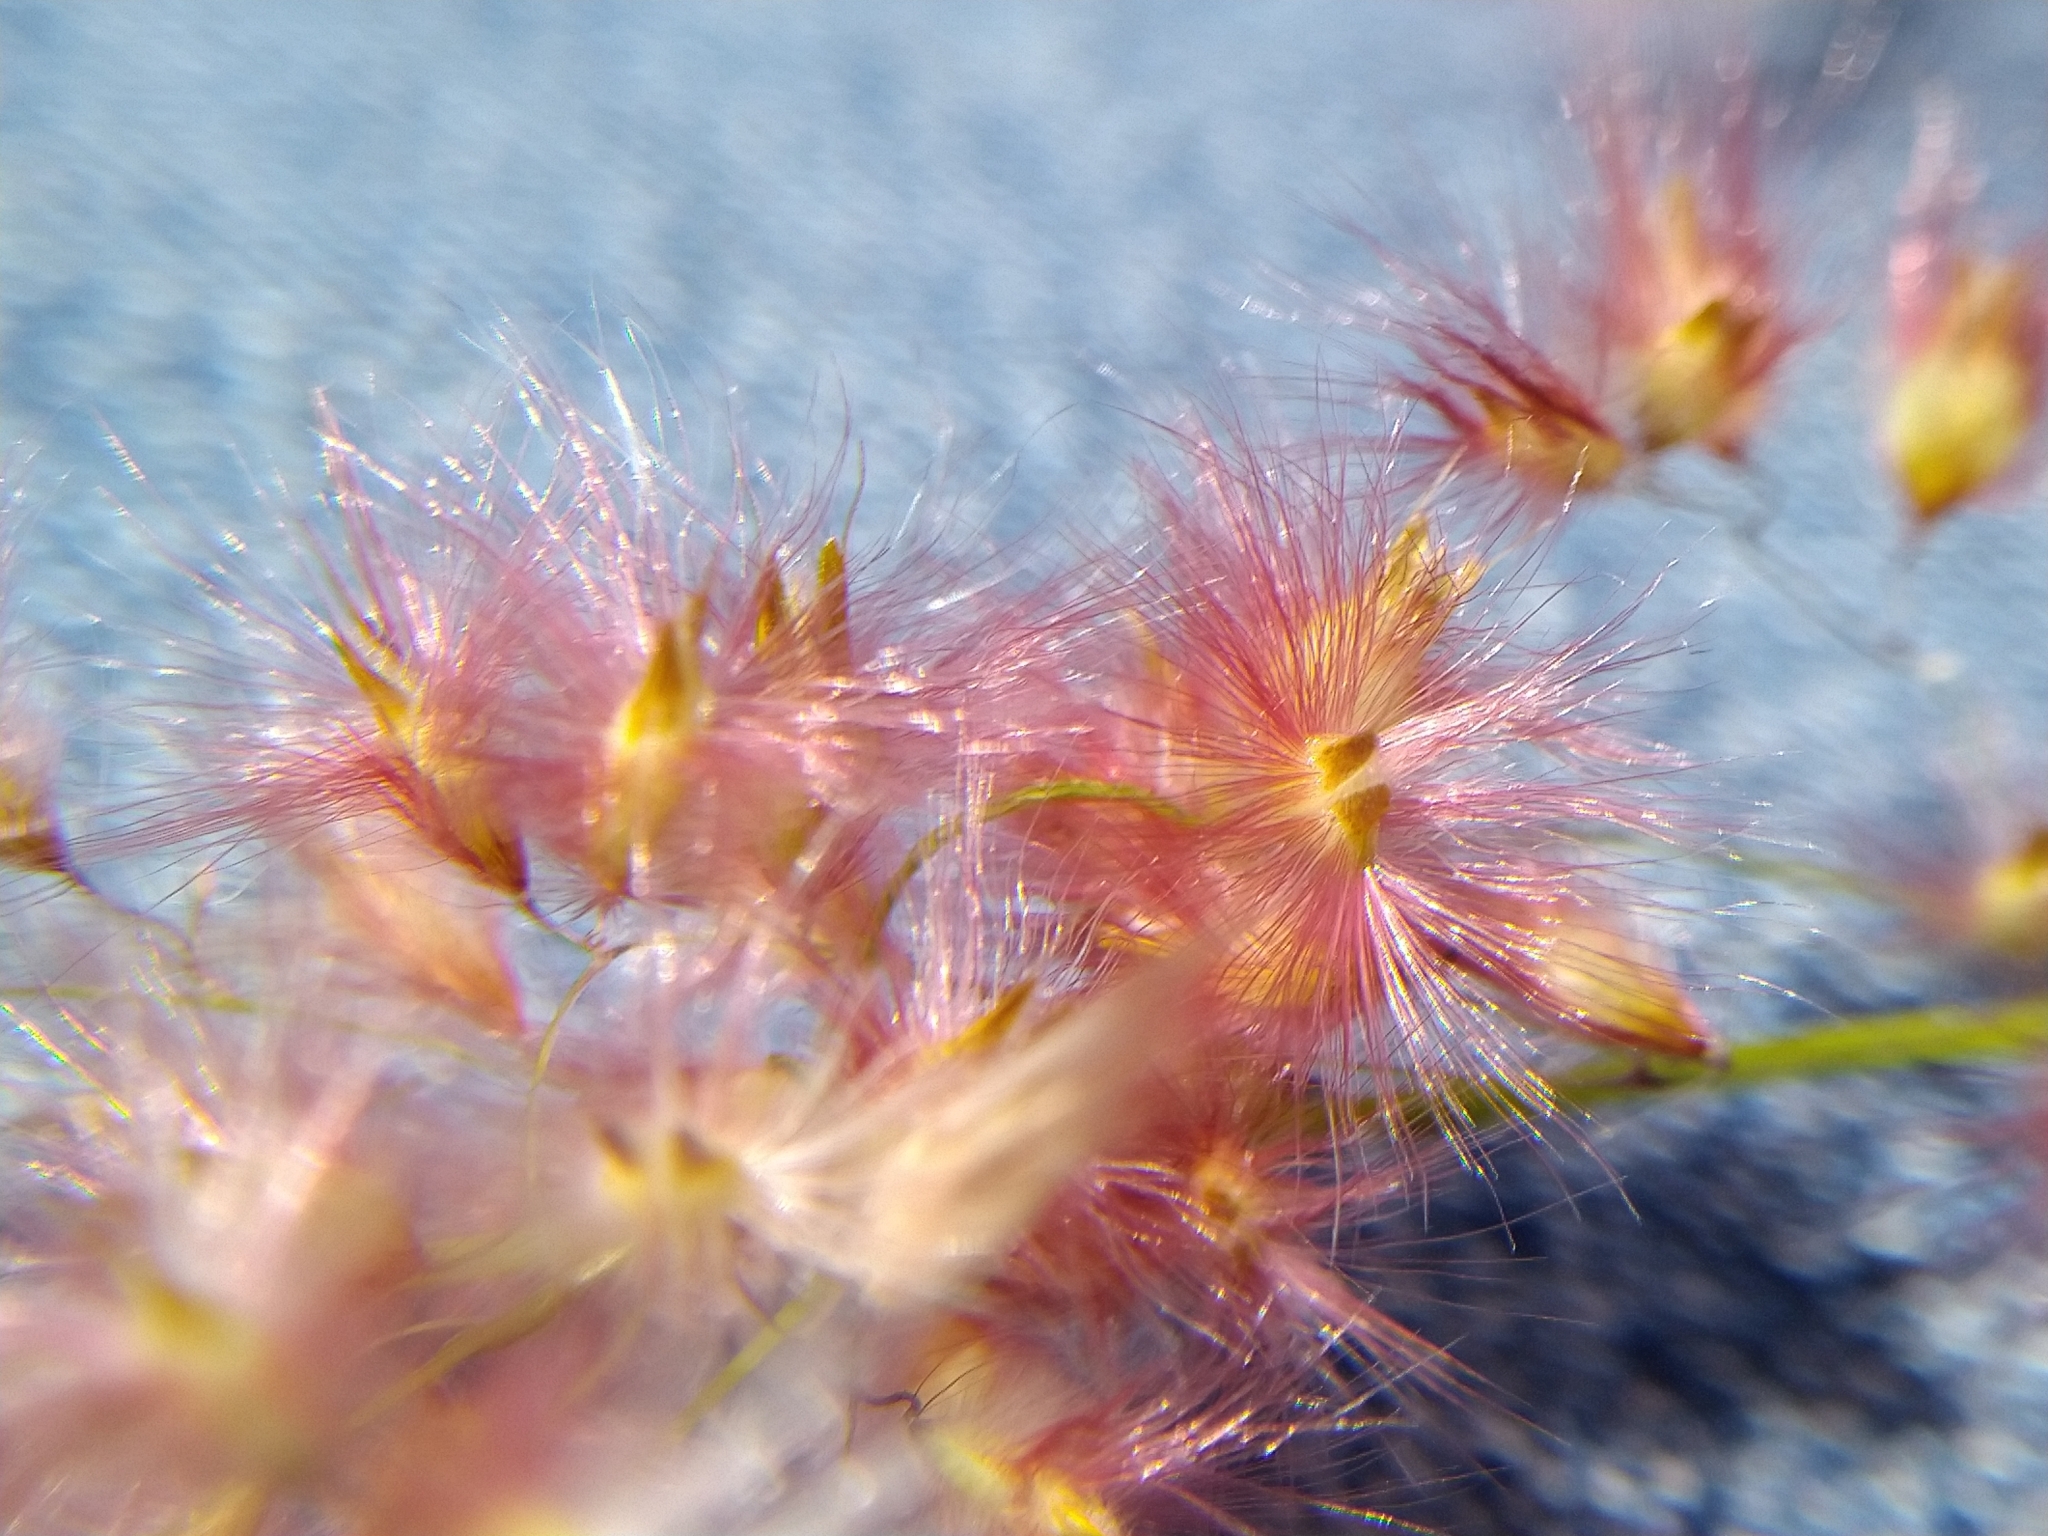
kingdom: Plantae
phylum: Tracheophyta
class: Liliopsida
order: Poales
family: Poaceae
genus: Melinis
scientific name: Melinis repens
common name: Rose natal grass
